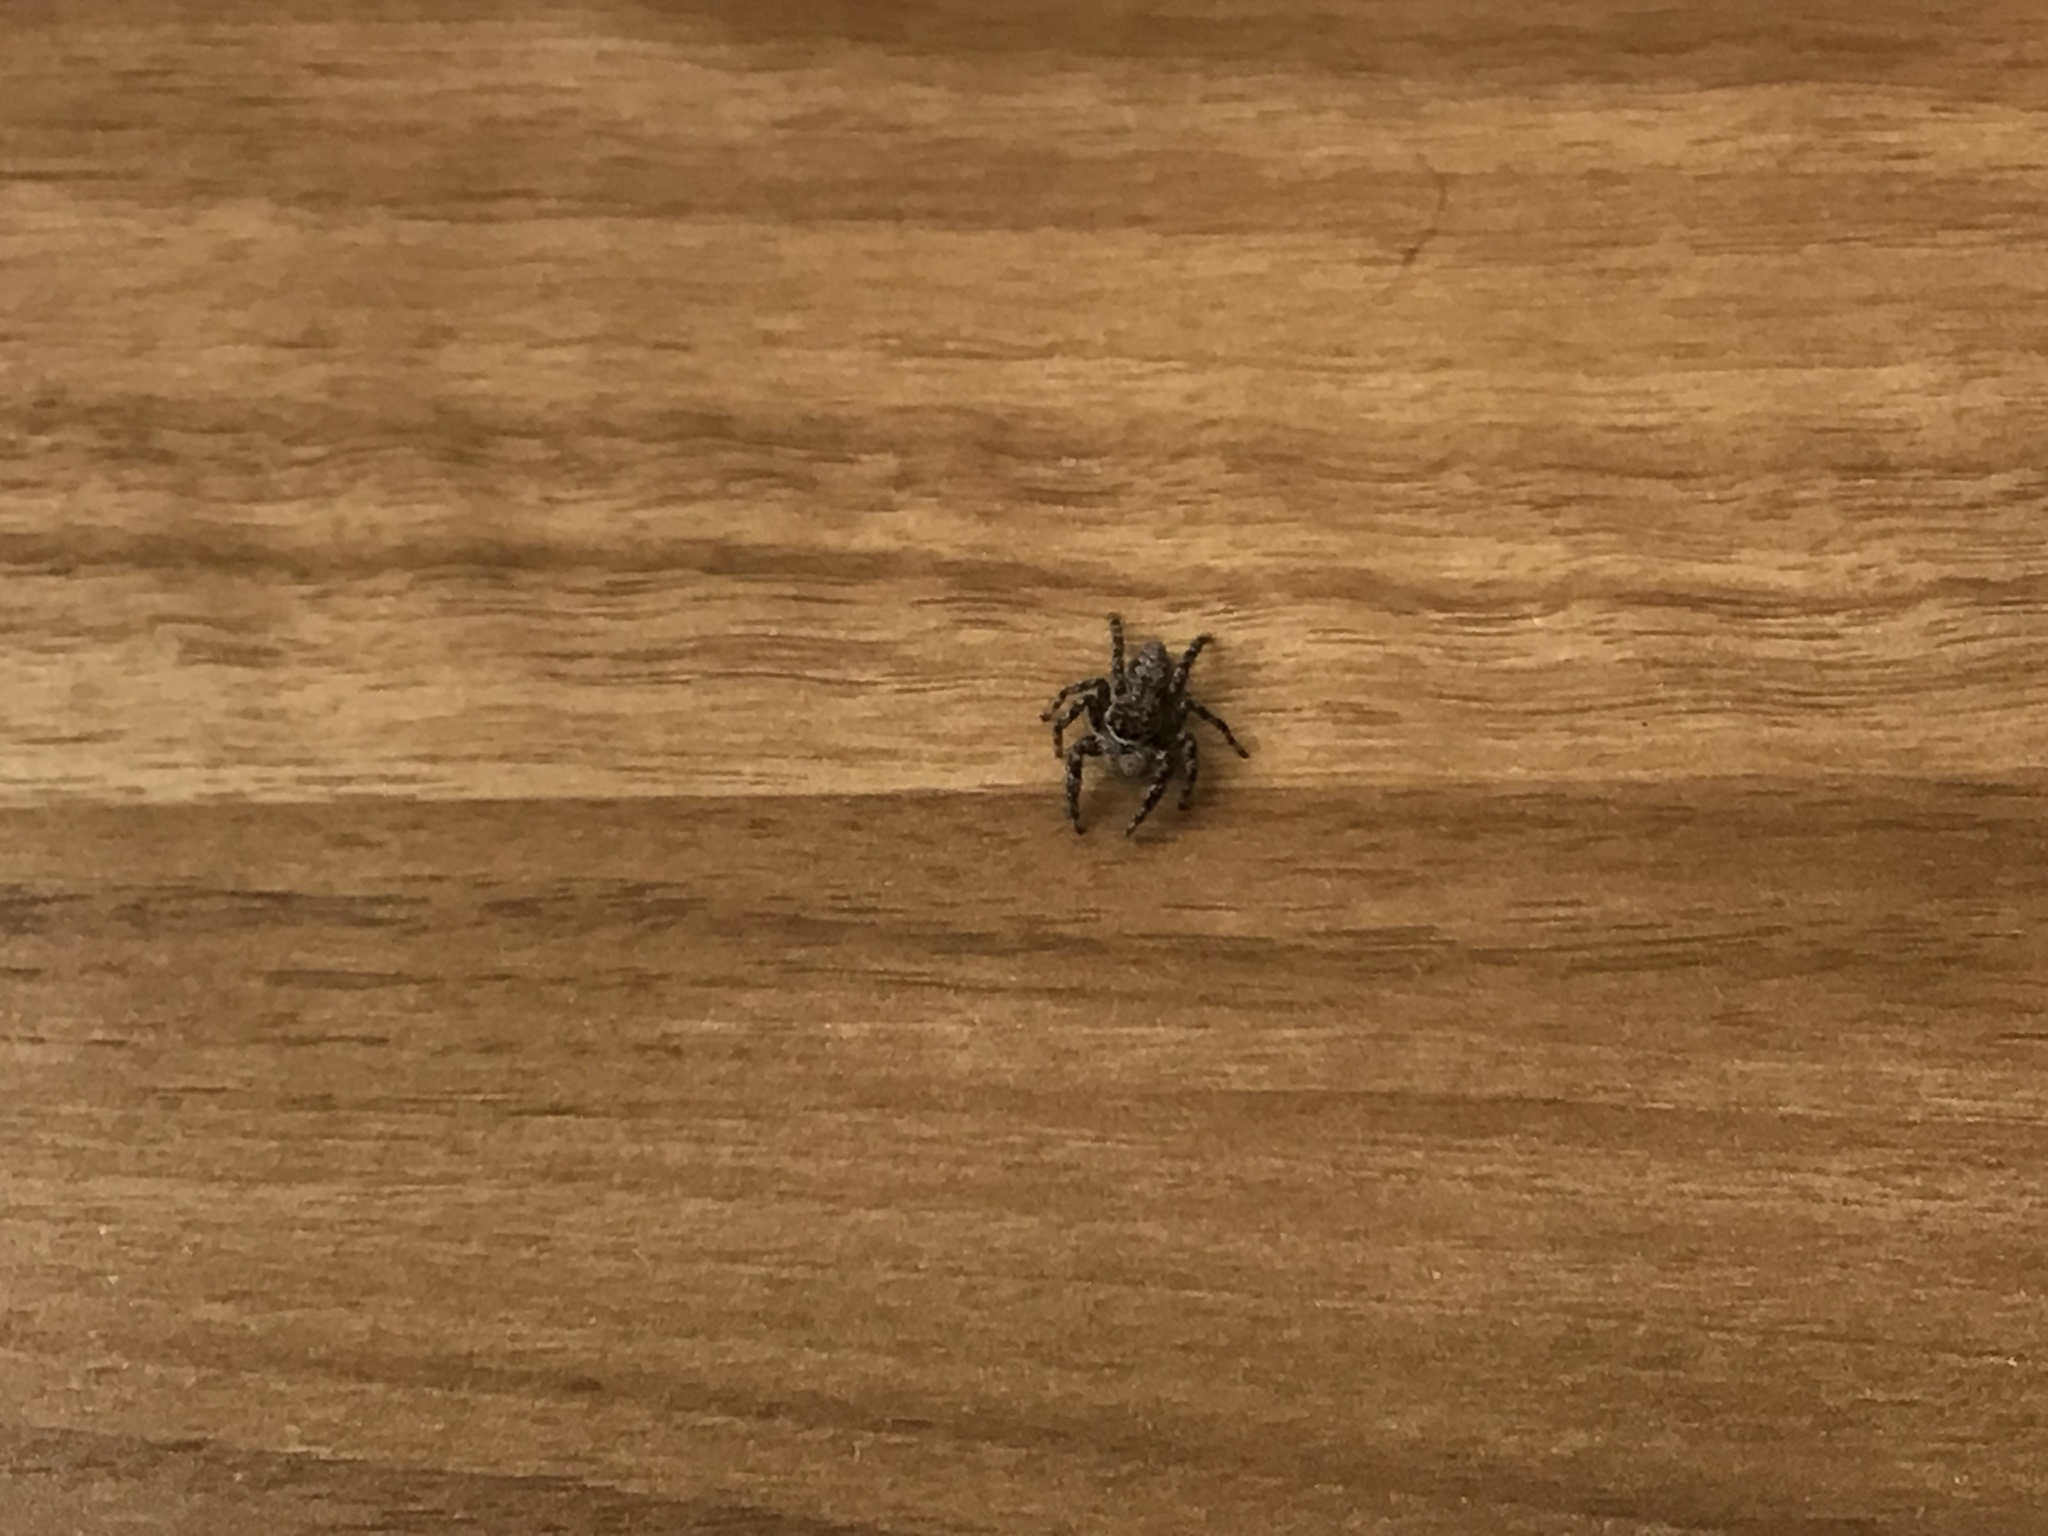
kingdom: Animalia
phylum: Arthropoda
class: Arachnida
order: Araneae
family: Salticidae
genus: Platycryptus
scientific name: Platycryptus undatus
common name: Tan jumping spider
